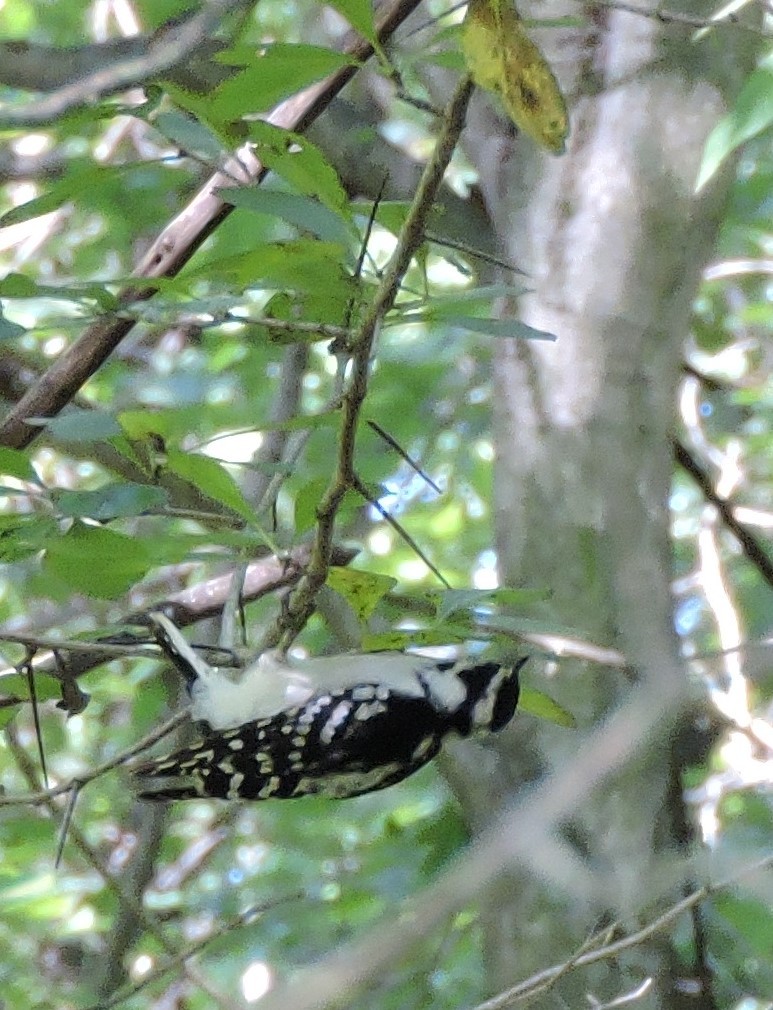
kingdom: Animalia
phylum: Chordata
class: Aves
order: Piciformes
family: Picidae
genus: Dryobates
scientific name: Dryobates pubescens
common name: Downy woodpecker
